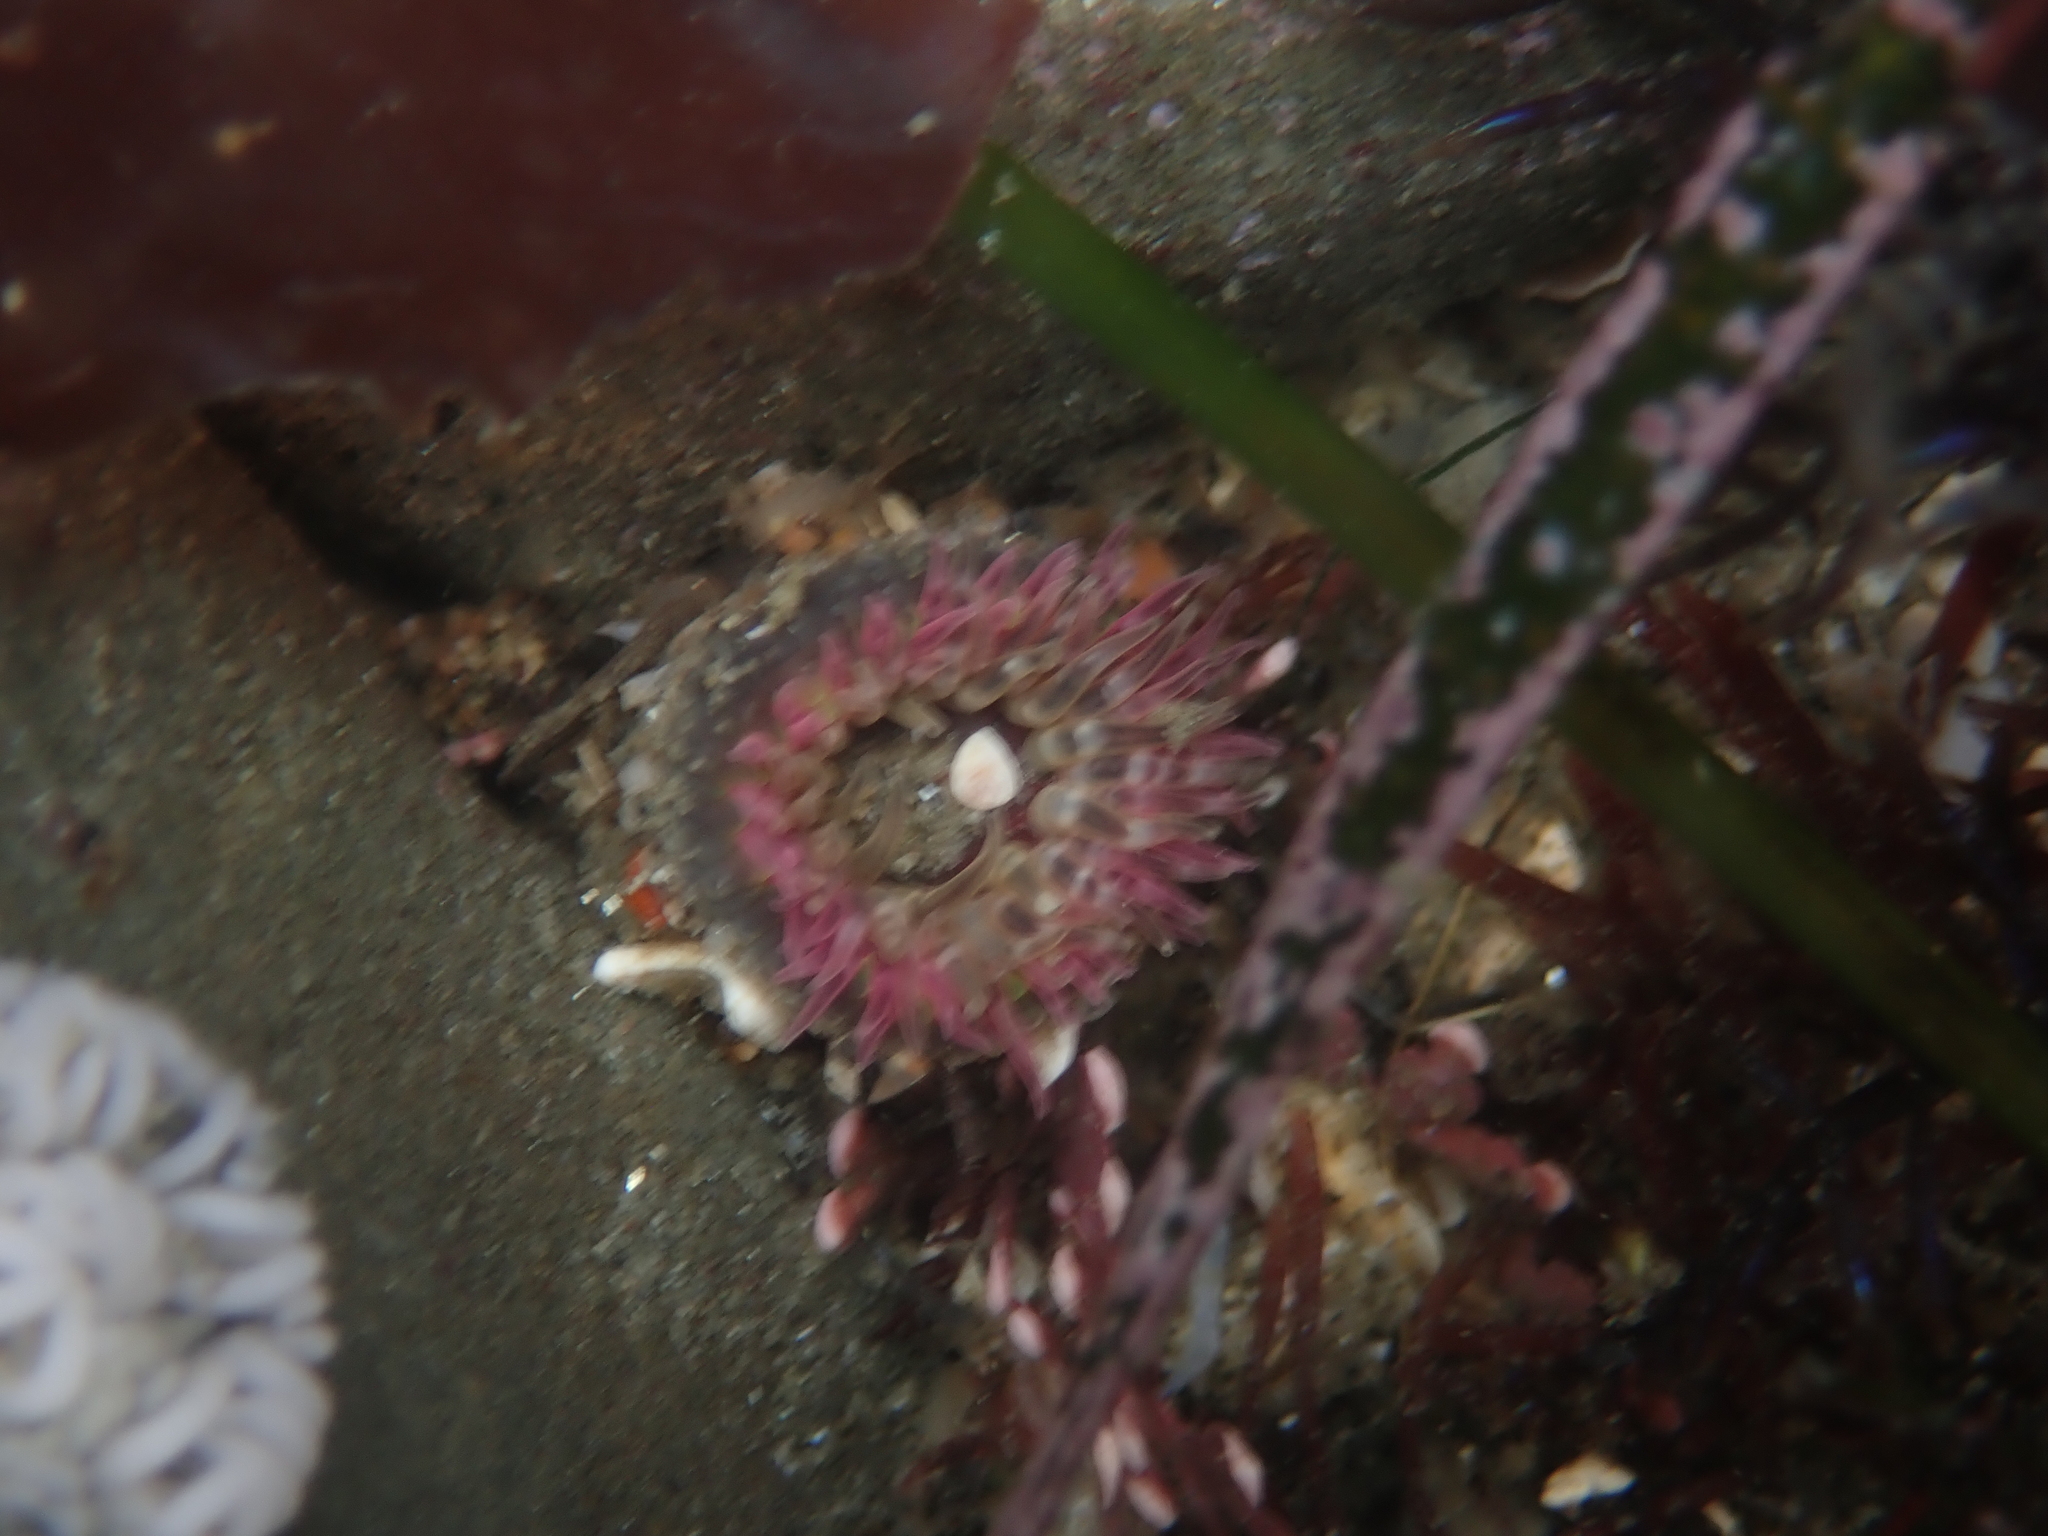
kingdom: Animalia
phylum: Cnidaria
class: Anthozoa
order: Actiniaria
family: Actiniidae
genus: Anthopleura
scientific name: Anthopleura artemisia
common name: Buried sea anemone
